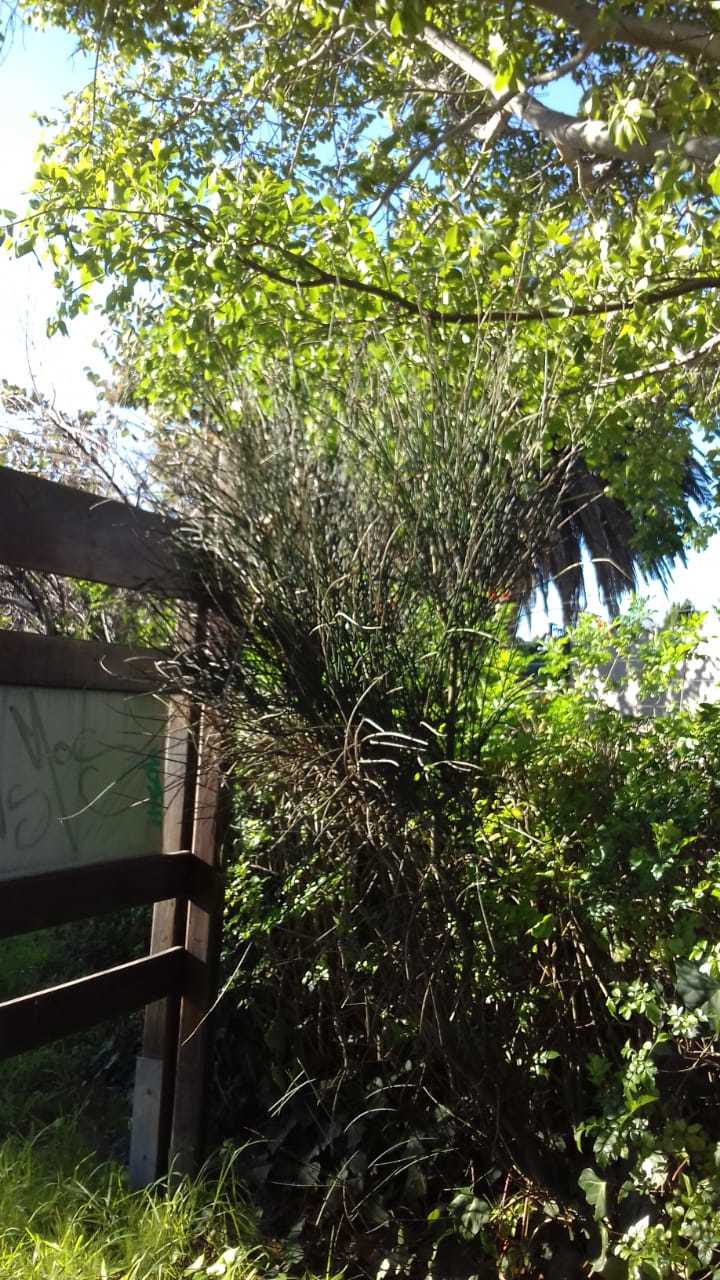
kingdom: Plantae
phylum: Tracheophyta
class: Magnoliopsida
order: Fabales
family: Fabaceae
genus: Spartium
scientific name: Spartium junceum
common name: Spanish broom
